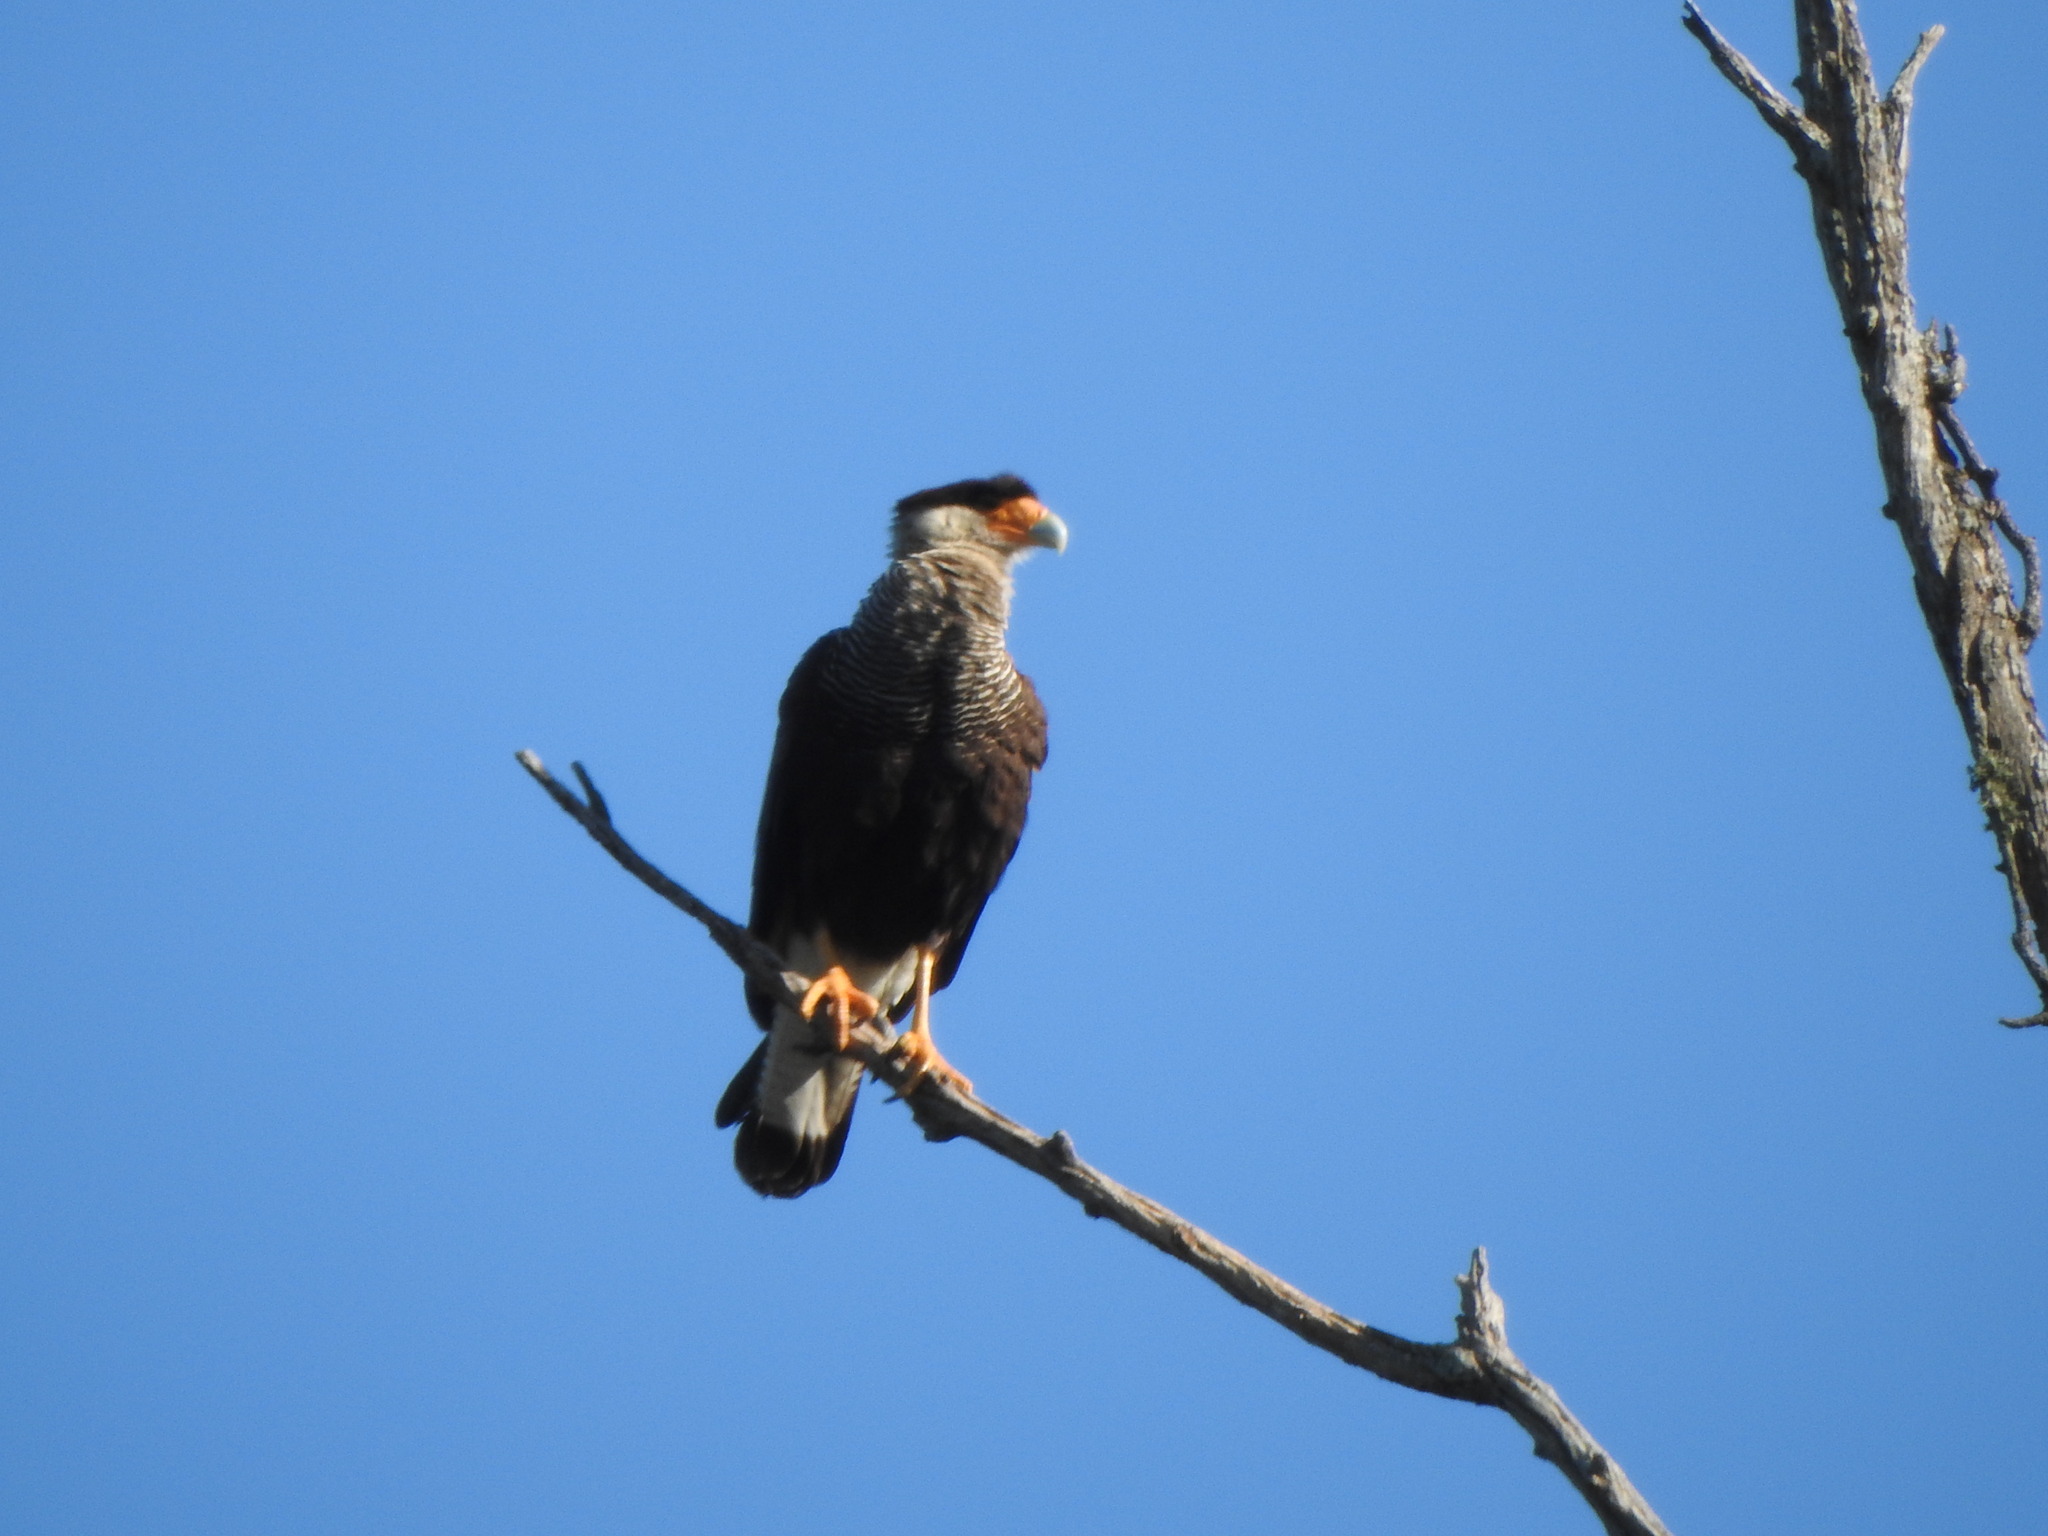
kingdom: Animalia
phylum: Chordata
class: Aves
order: Falconiformes
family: Falconidae
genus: Caracara
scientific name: Caracara plancus
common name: Southern caracara
